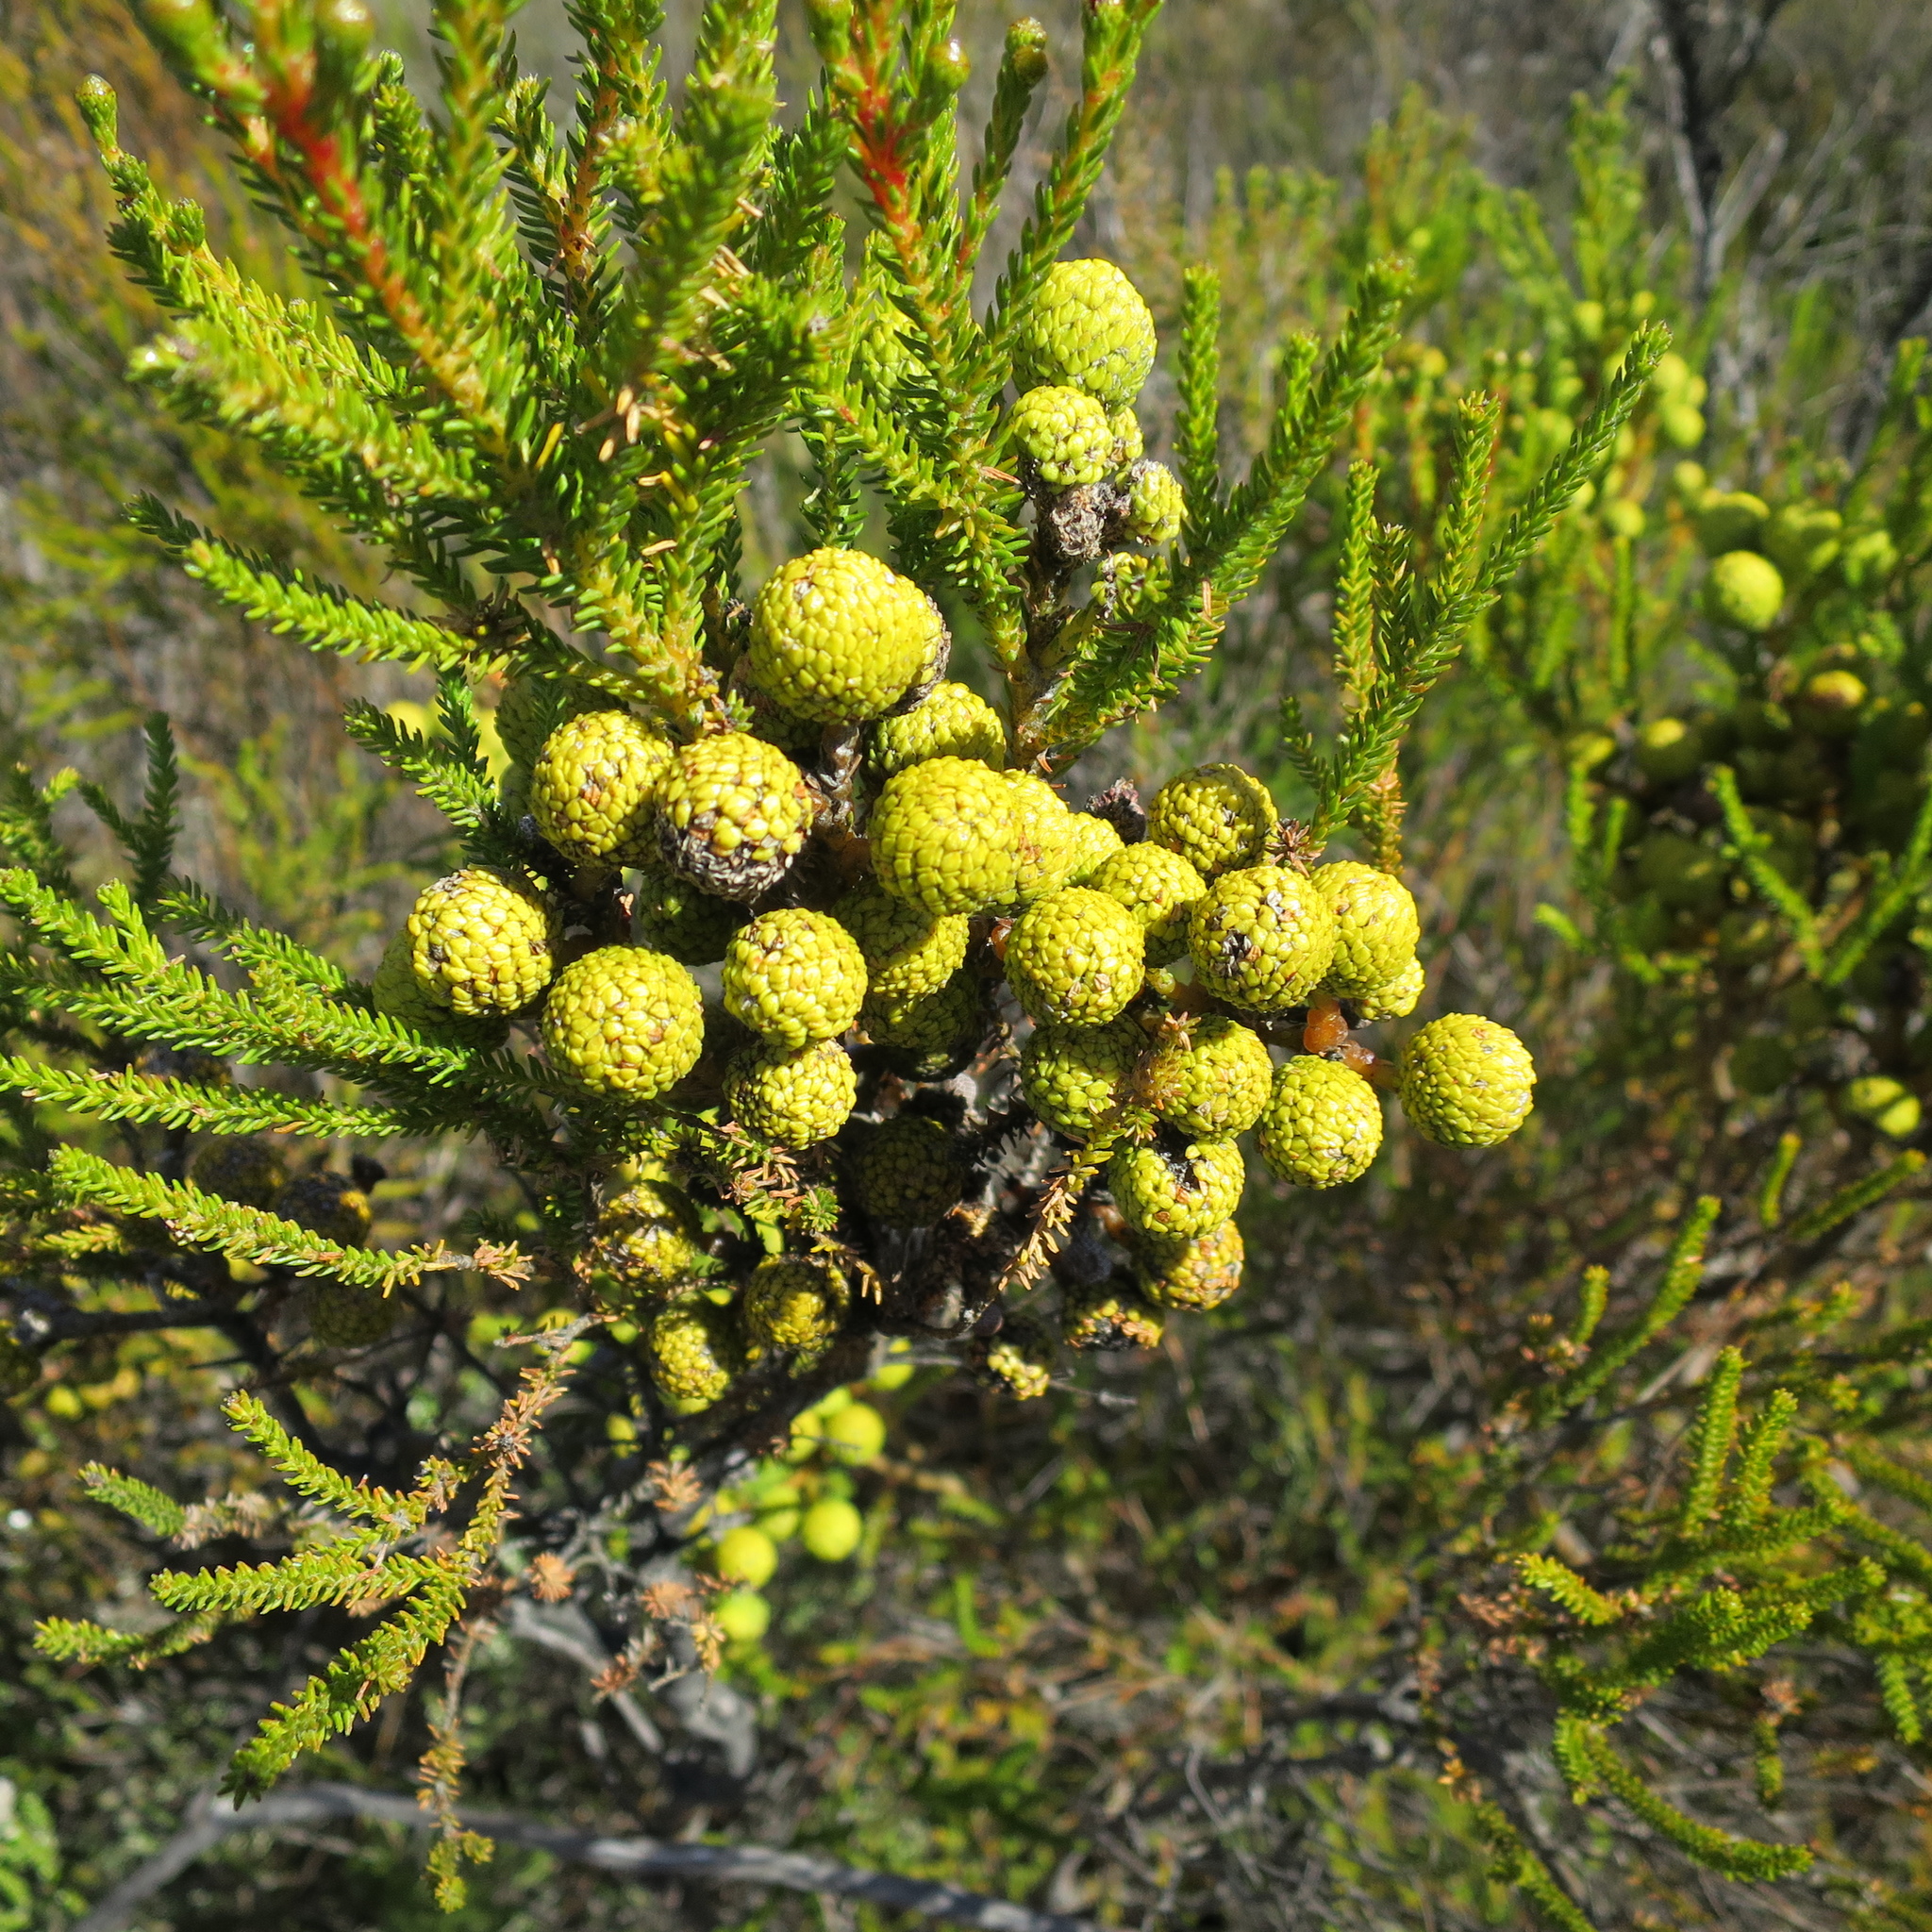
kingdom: Plantae
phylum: Tracheophyta
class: Magnoliopsida
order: Bruniales
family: Bruniaceae
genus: Berzelia
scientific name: Berzelia intermedia
